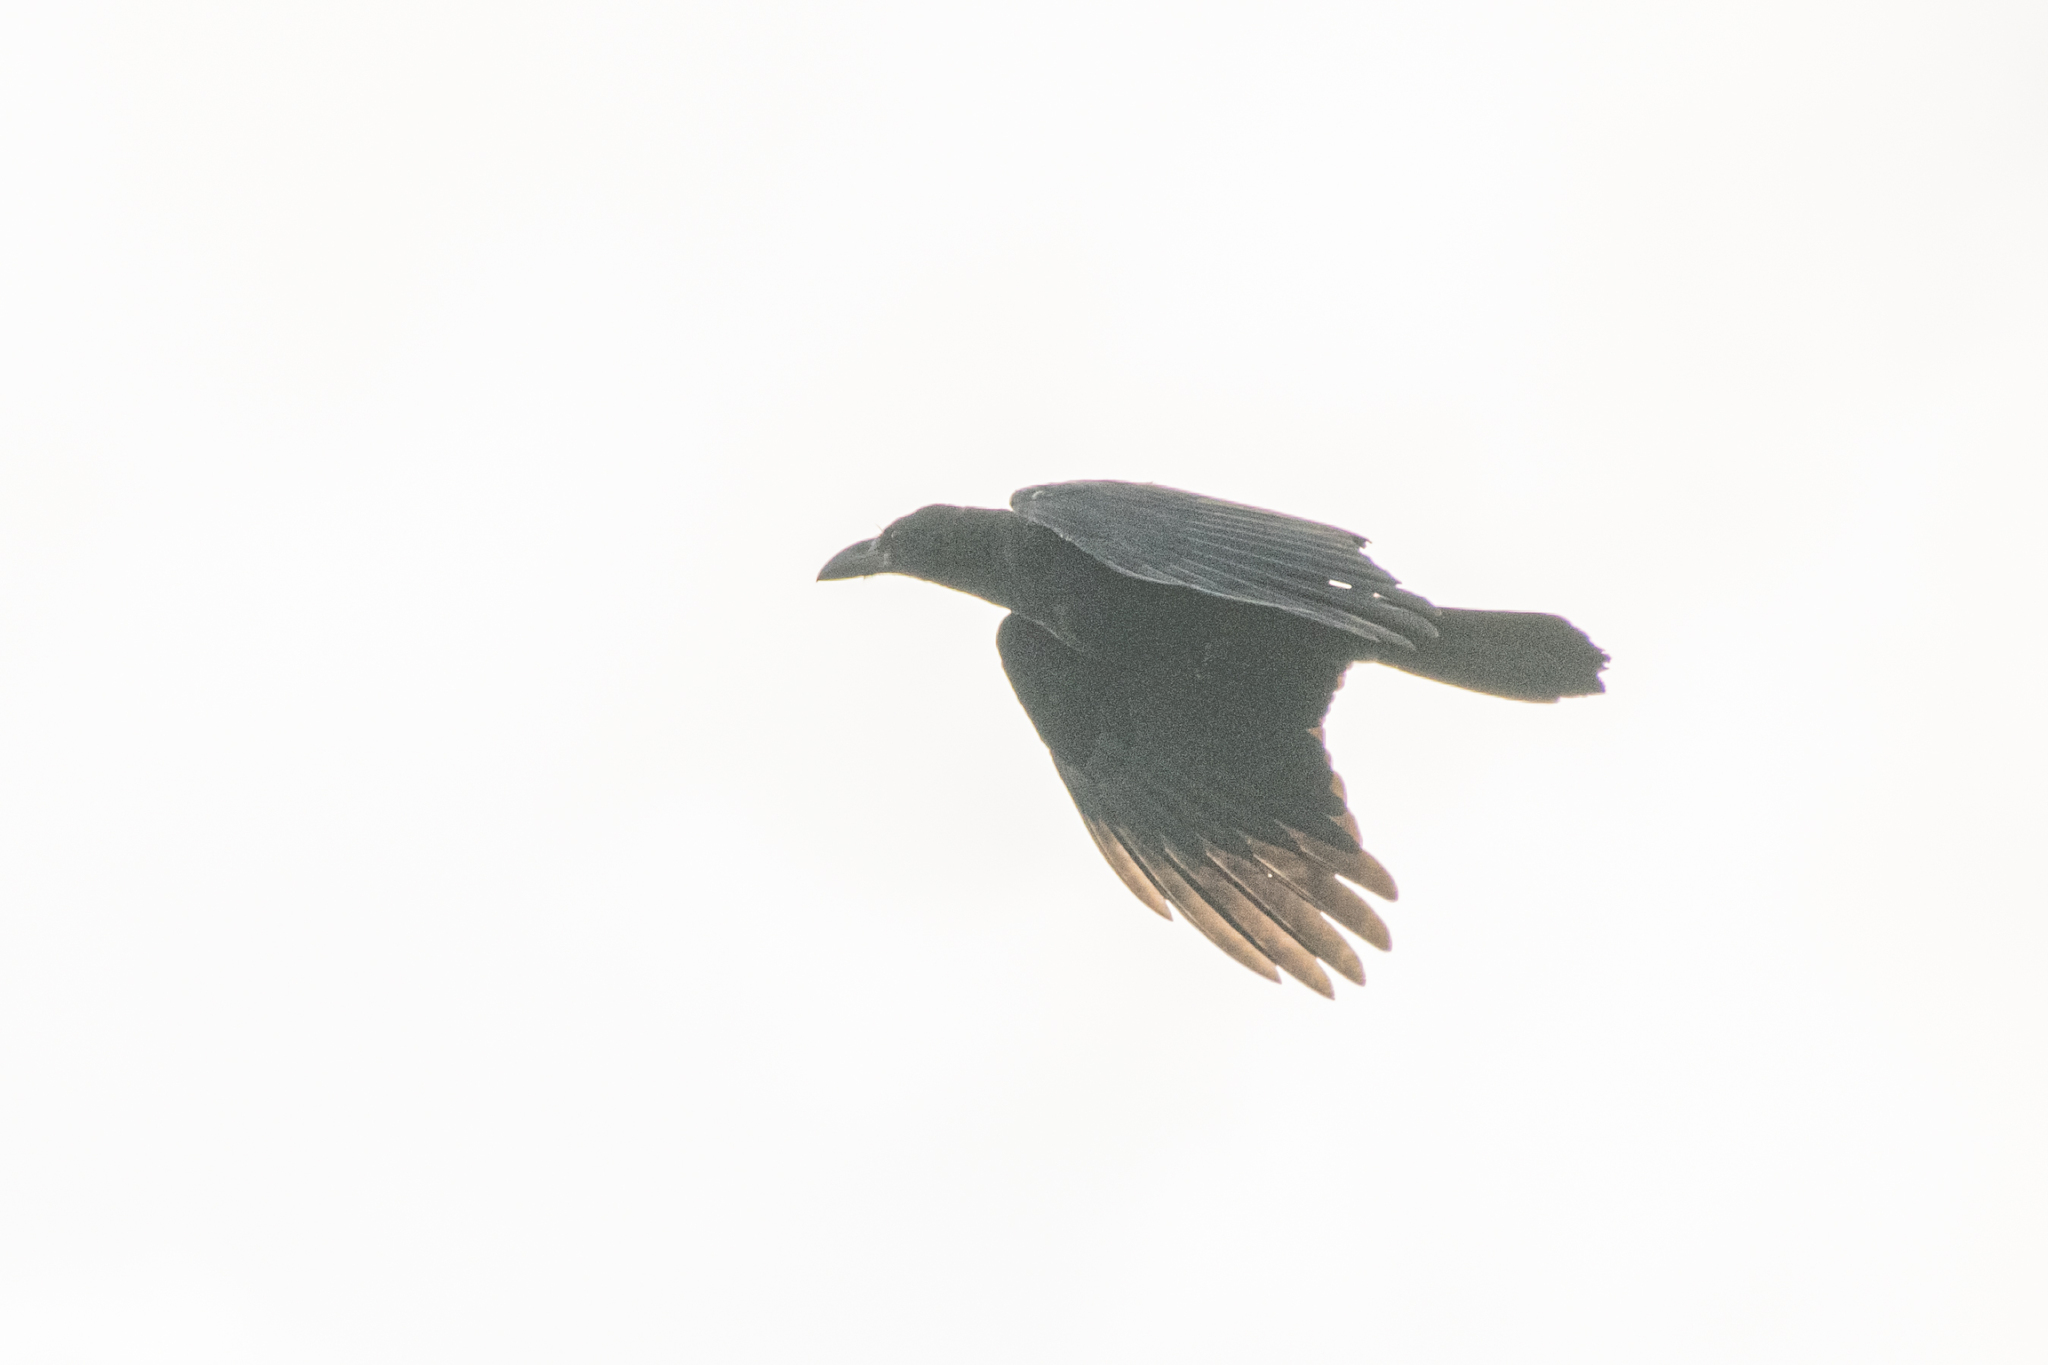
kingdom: Animalia
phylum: Chordata
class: Aves
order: Passeriformes
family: Corvidae
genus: Corvus
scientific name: Corvus macrorhynchos
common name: Large-billed crow
